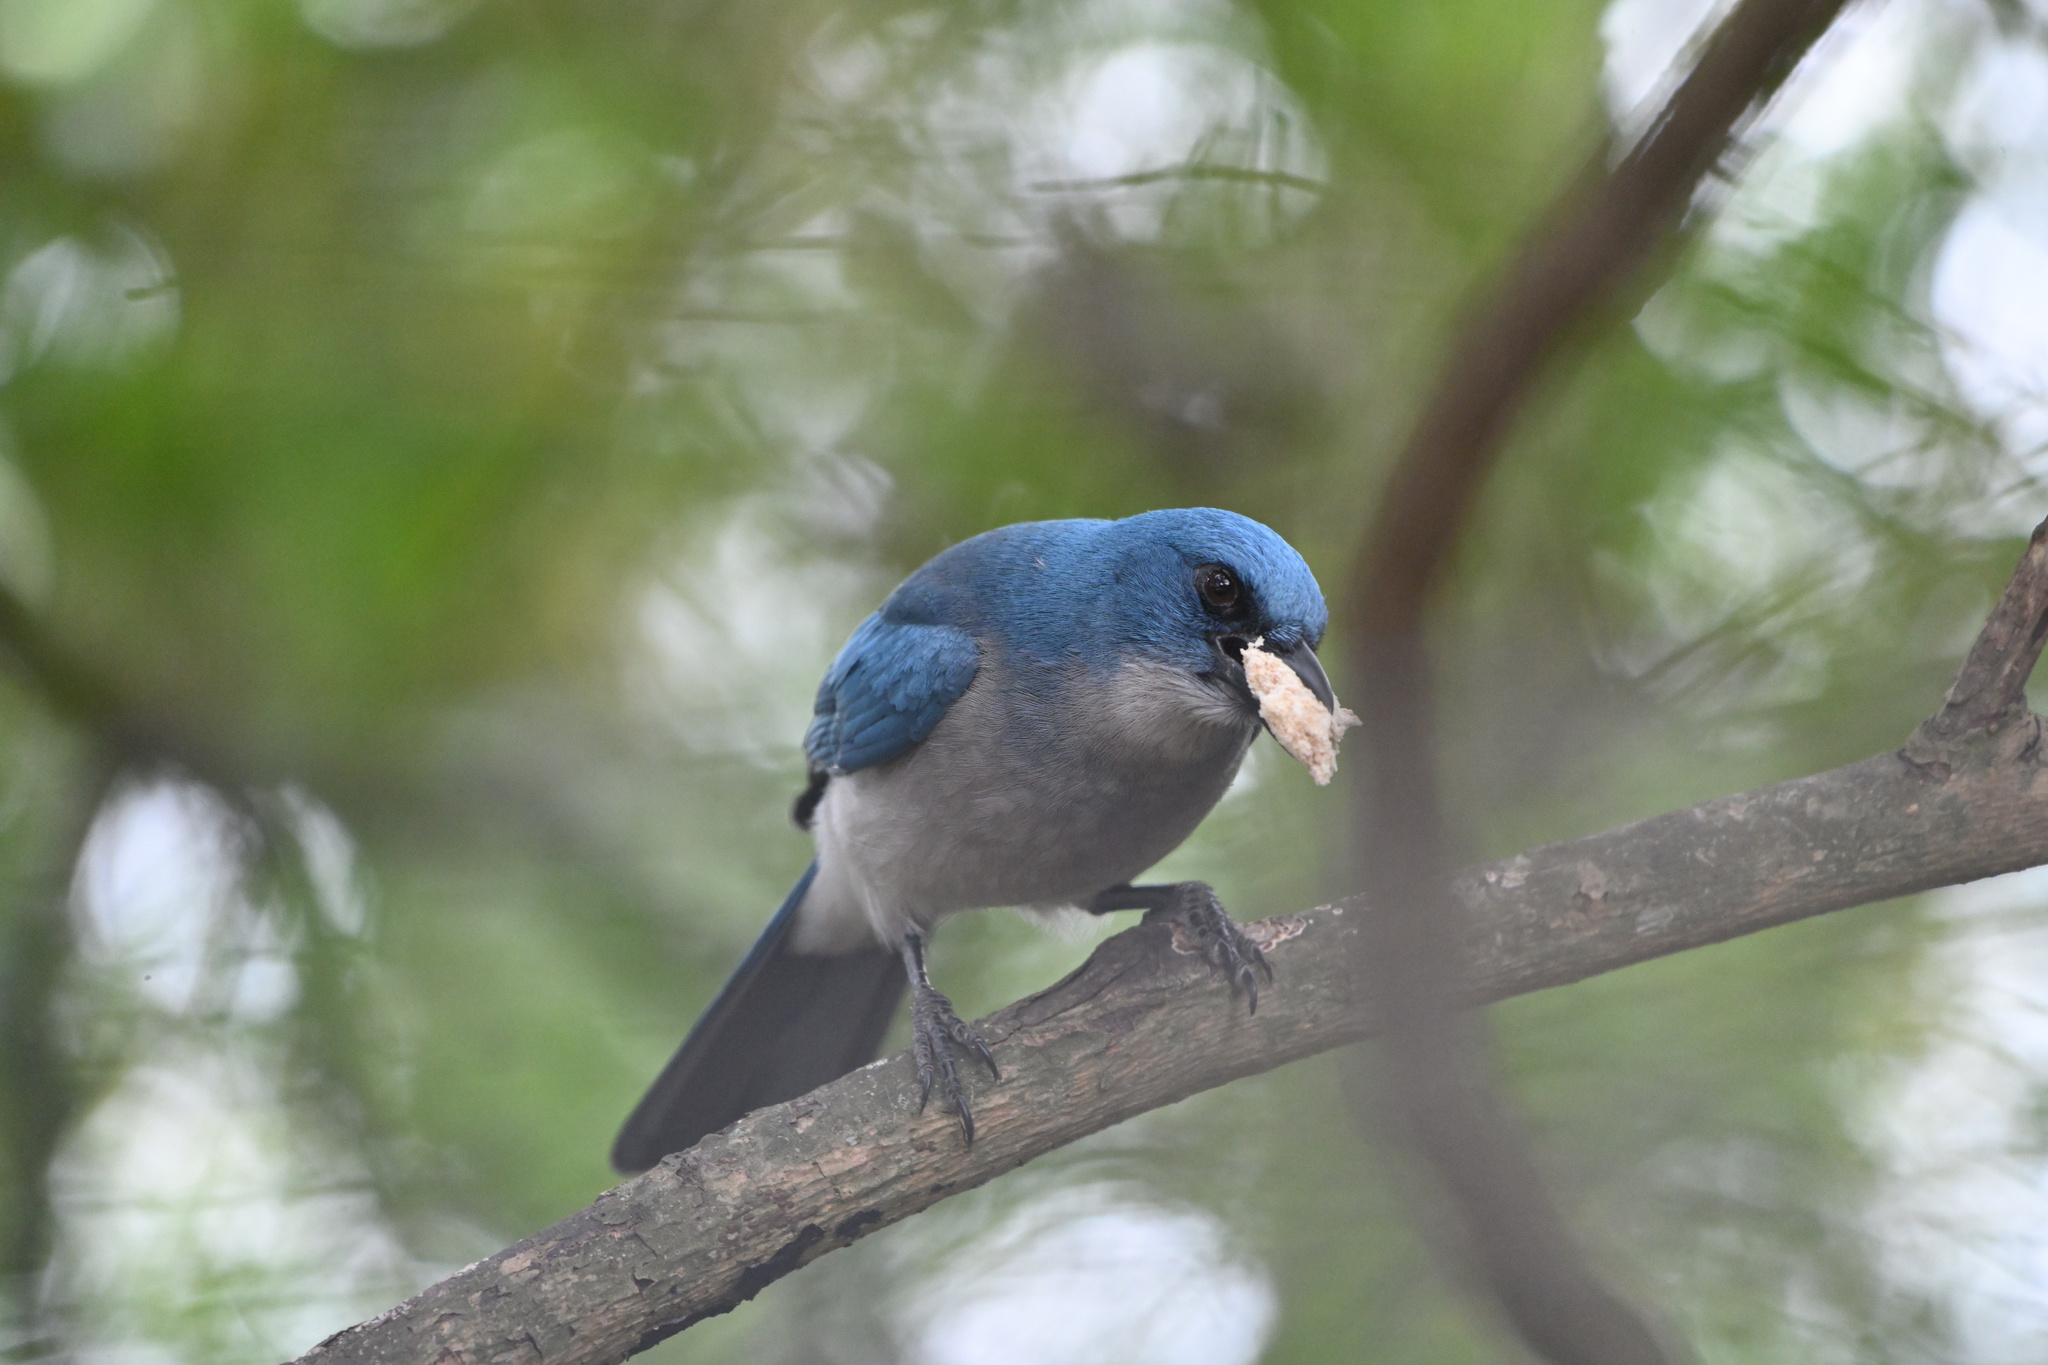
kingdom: Animalia
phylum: Chordata
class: Aves
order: Passeriformes
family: Corvidae
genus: Aphelocoma
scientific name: Aphelocoma wollweberi
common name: Mexican jay
